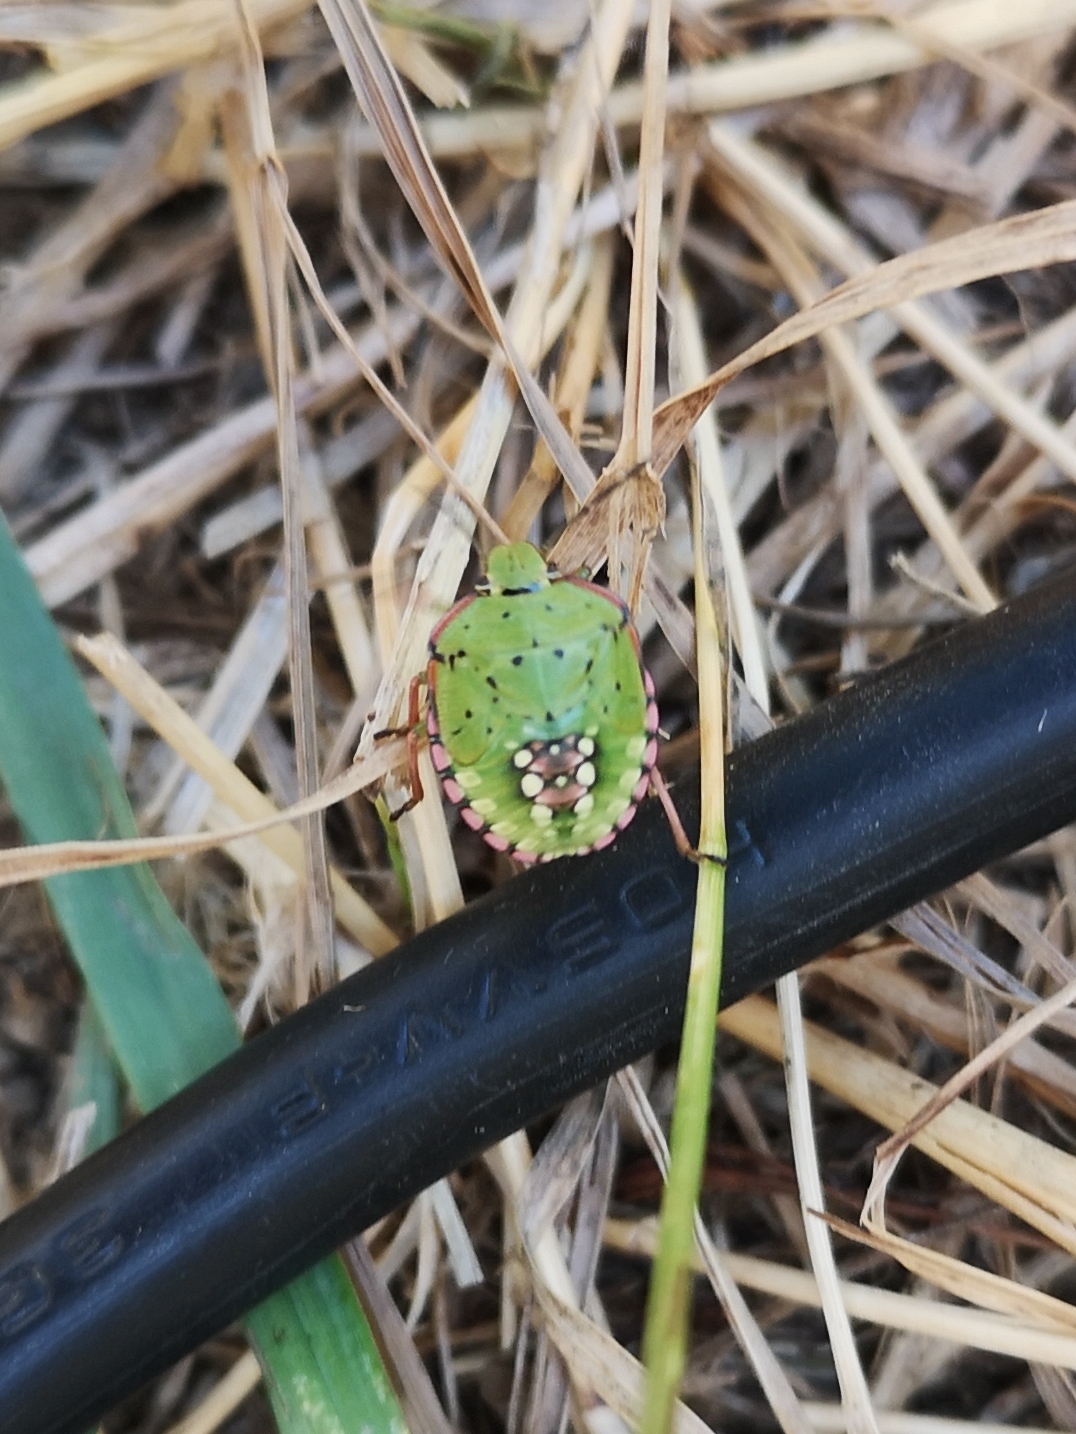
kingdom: Animalia
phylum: Arthropoda
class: Insecta
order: Hemiptera
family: Pentatomidae
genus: Nezara
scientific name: Nezara viridula
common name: Southern green stink bug
